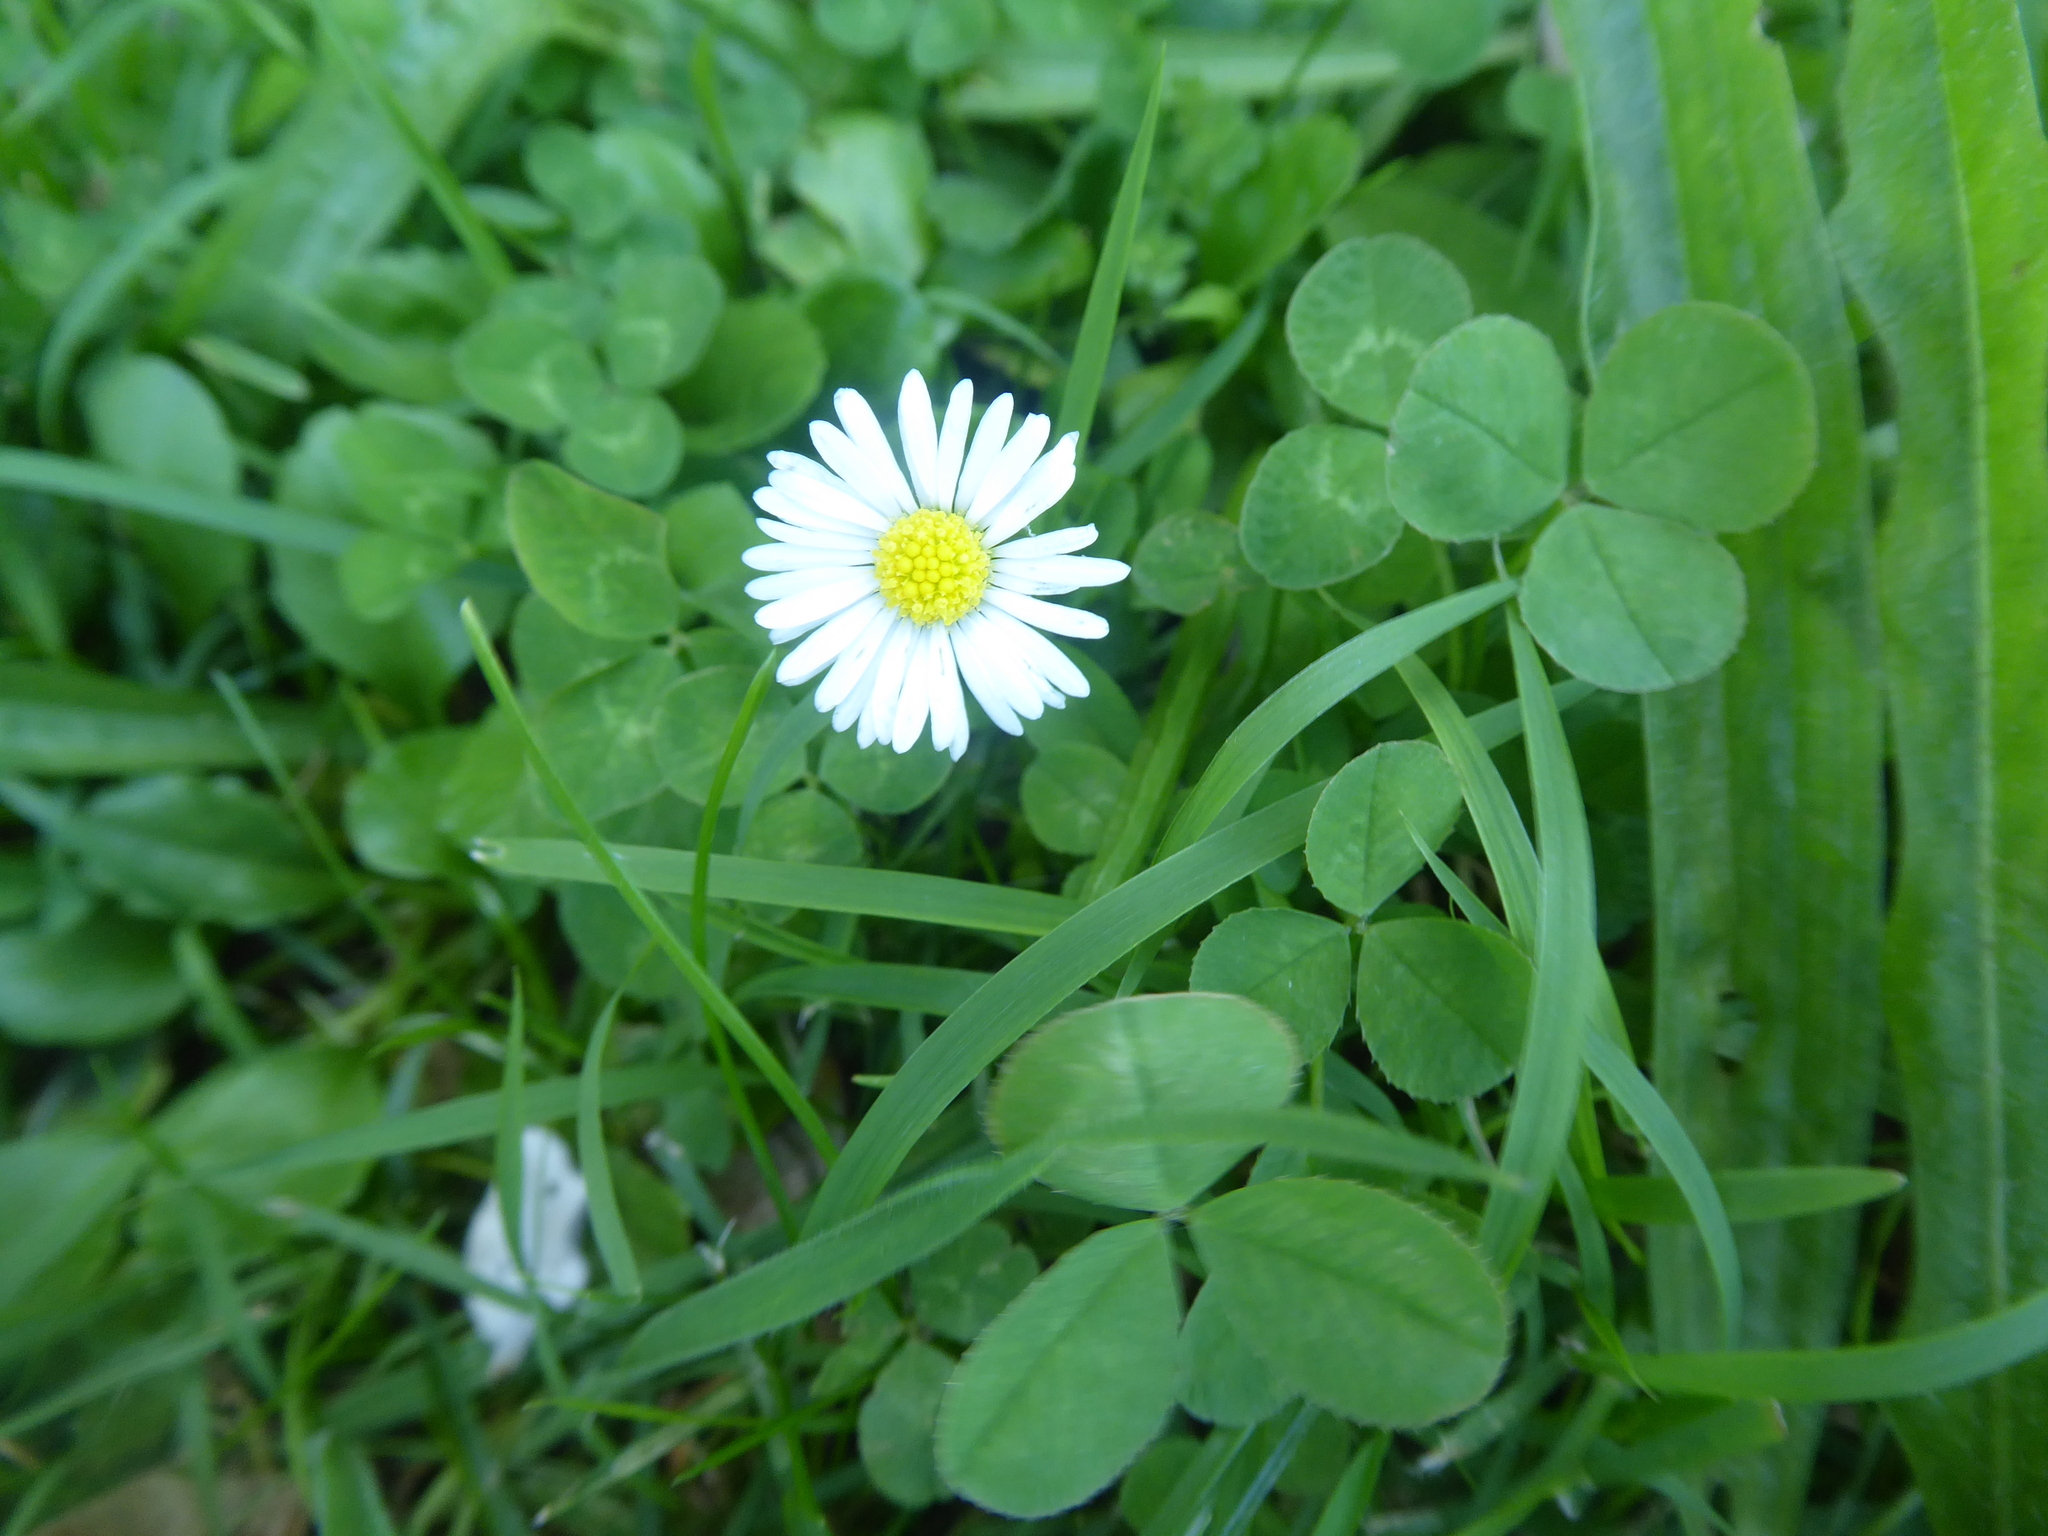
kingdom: Plantae
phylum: Tracheophyta
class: Magnoliopsida
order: Asterales
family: Asteraceae
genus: Bellis
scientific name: Bellis perennis
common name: Lawndaisy
